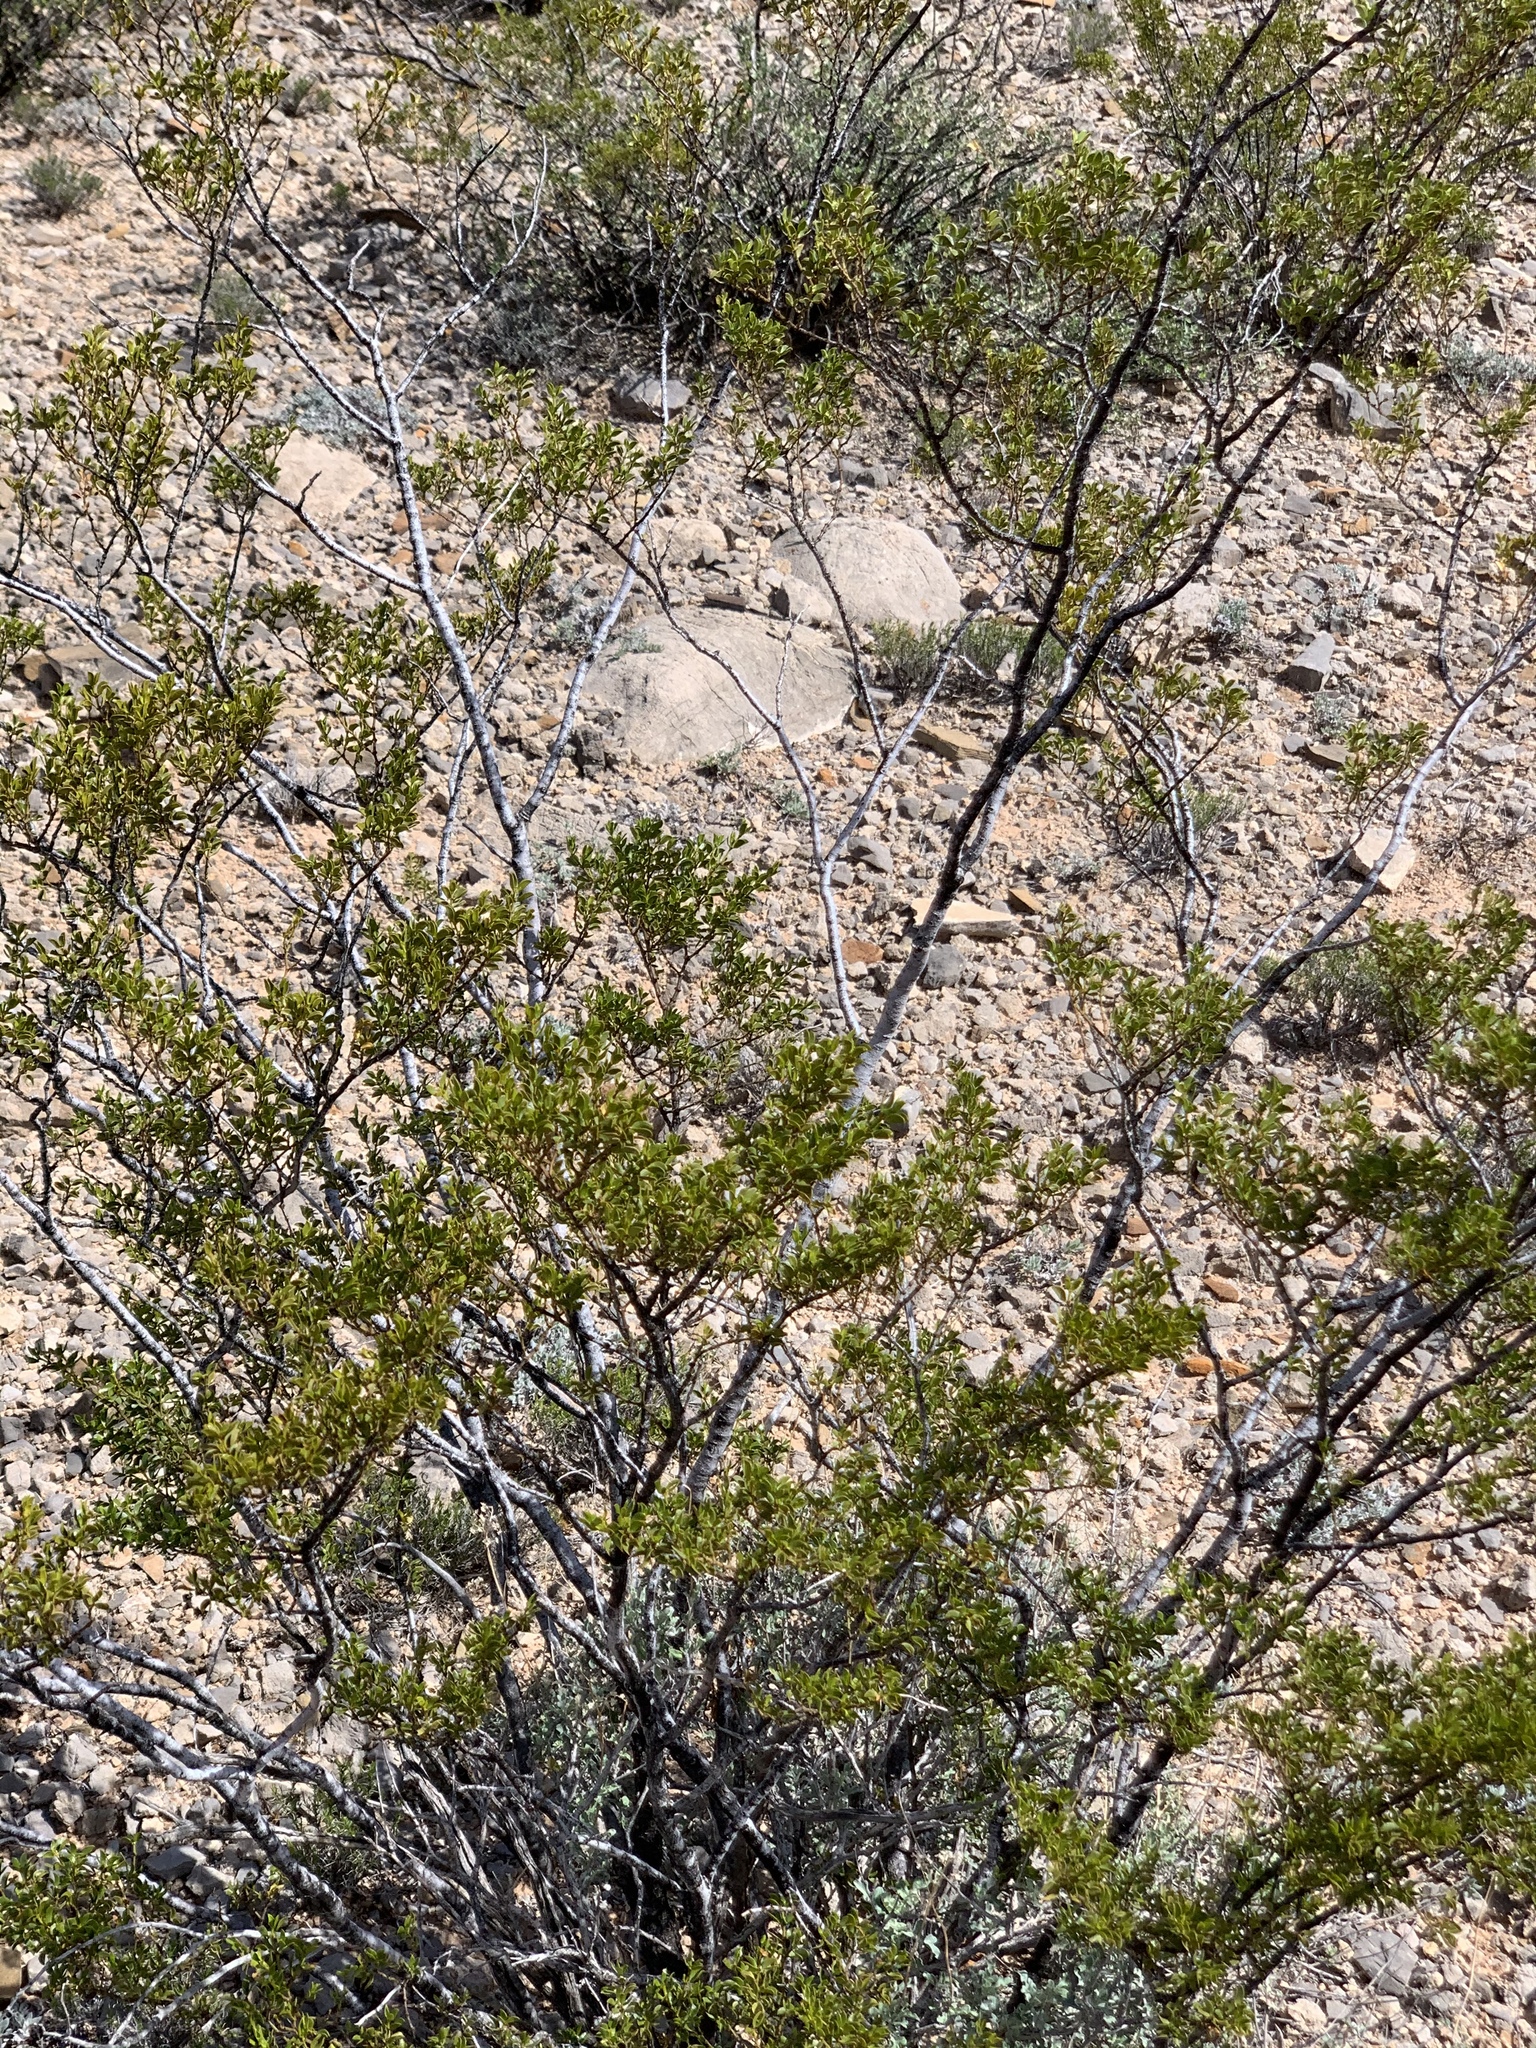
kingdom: Plantae
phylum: Tracheophyta
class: Magnoliopsida
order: Zygophyllales
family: Zygophyllaceae
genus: Larrea
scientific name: Larrea tridentata
